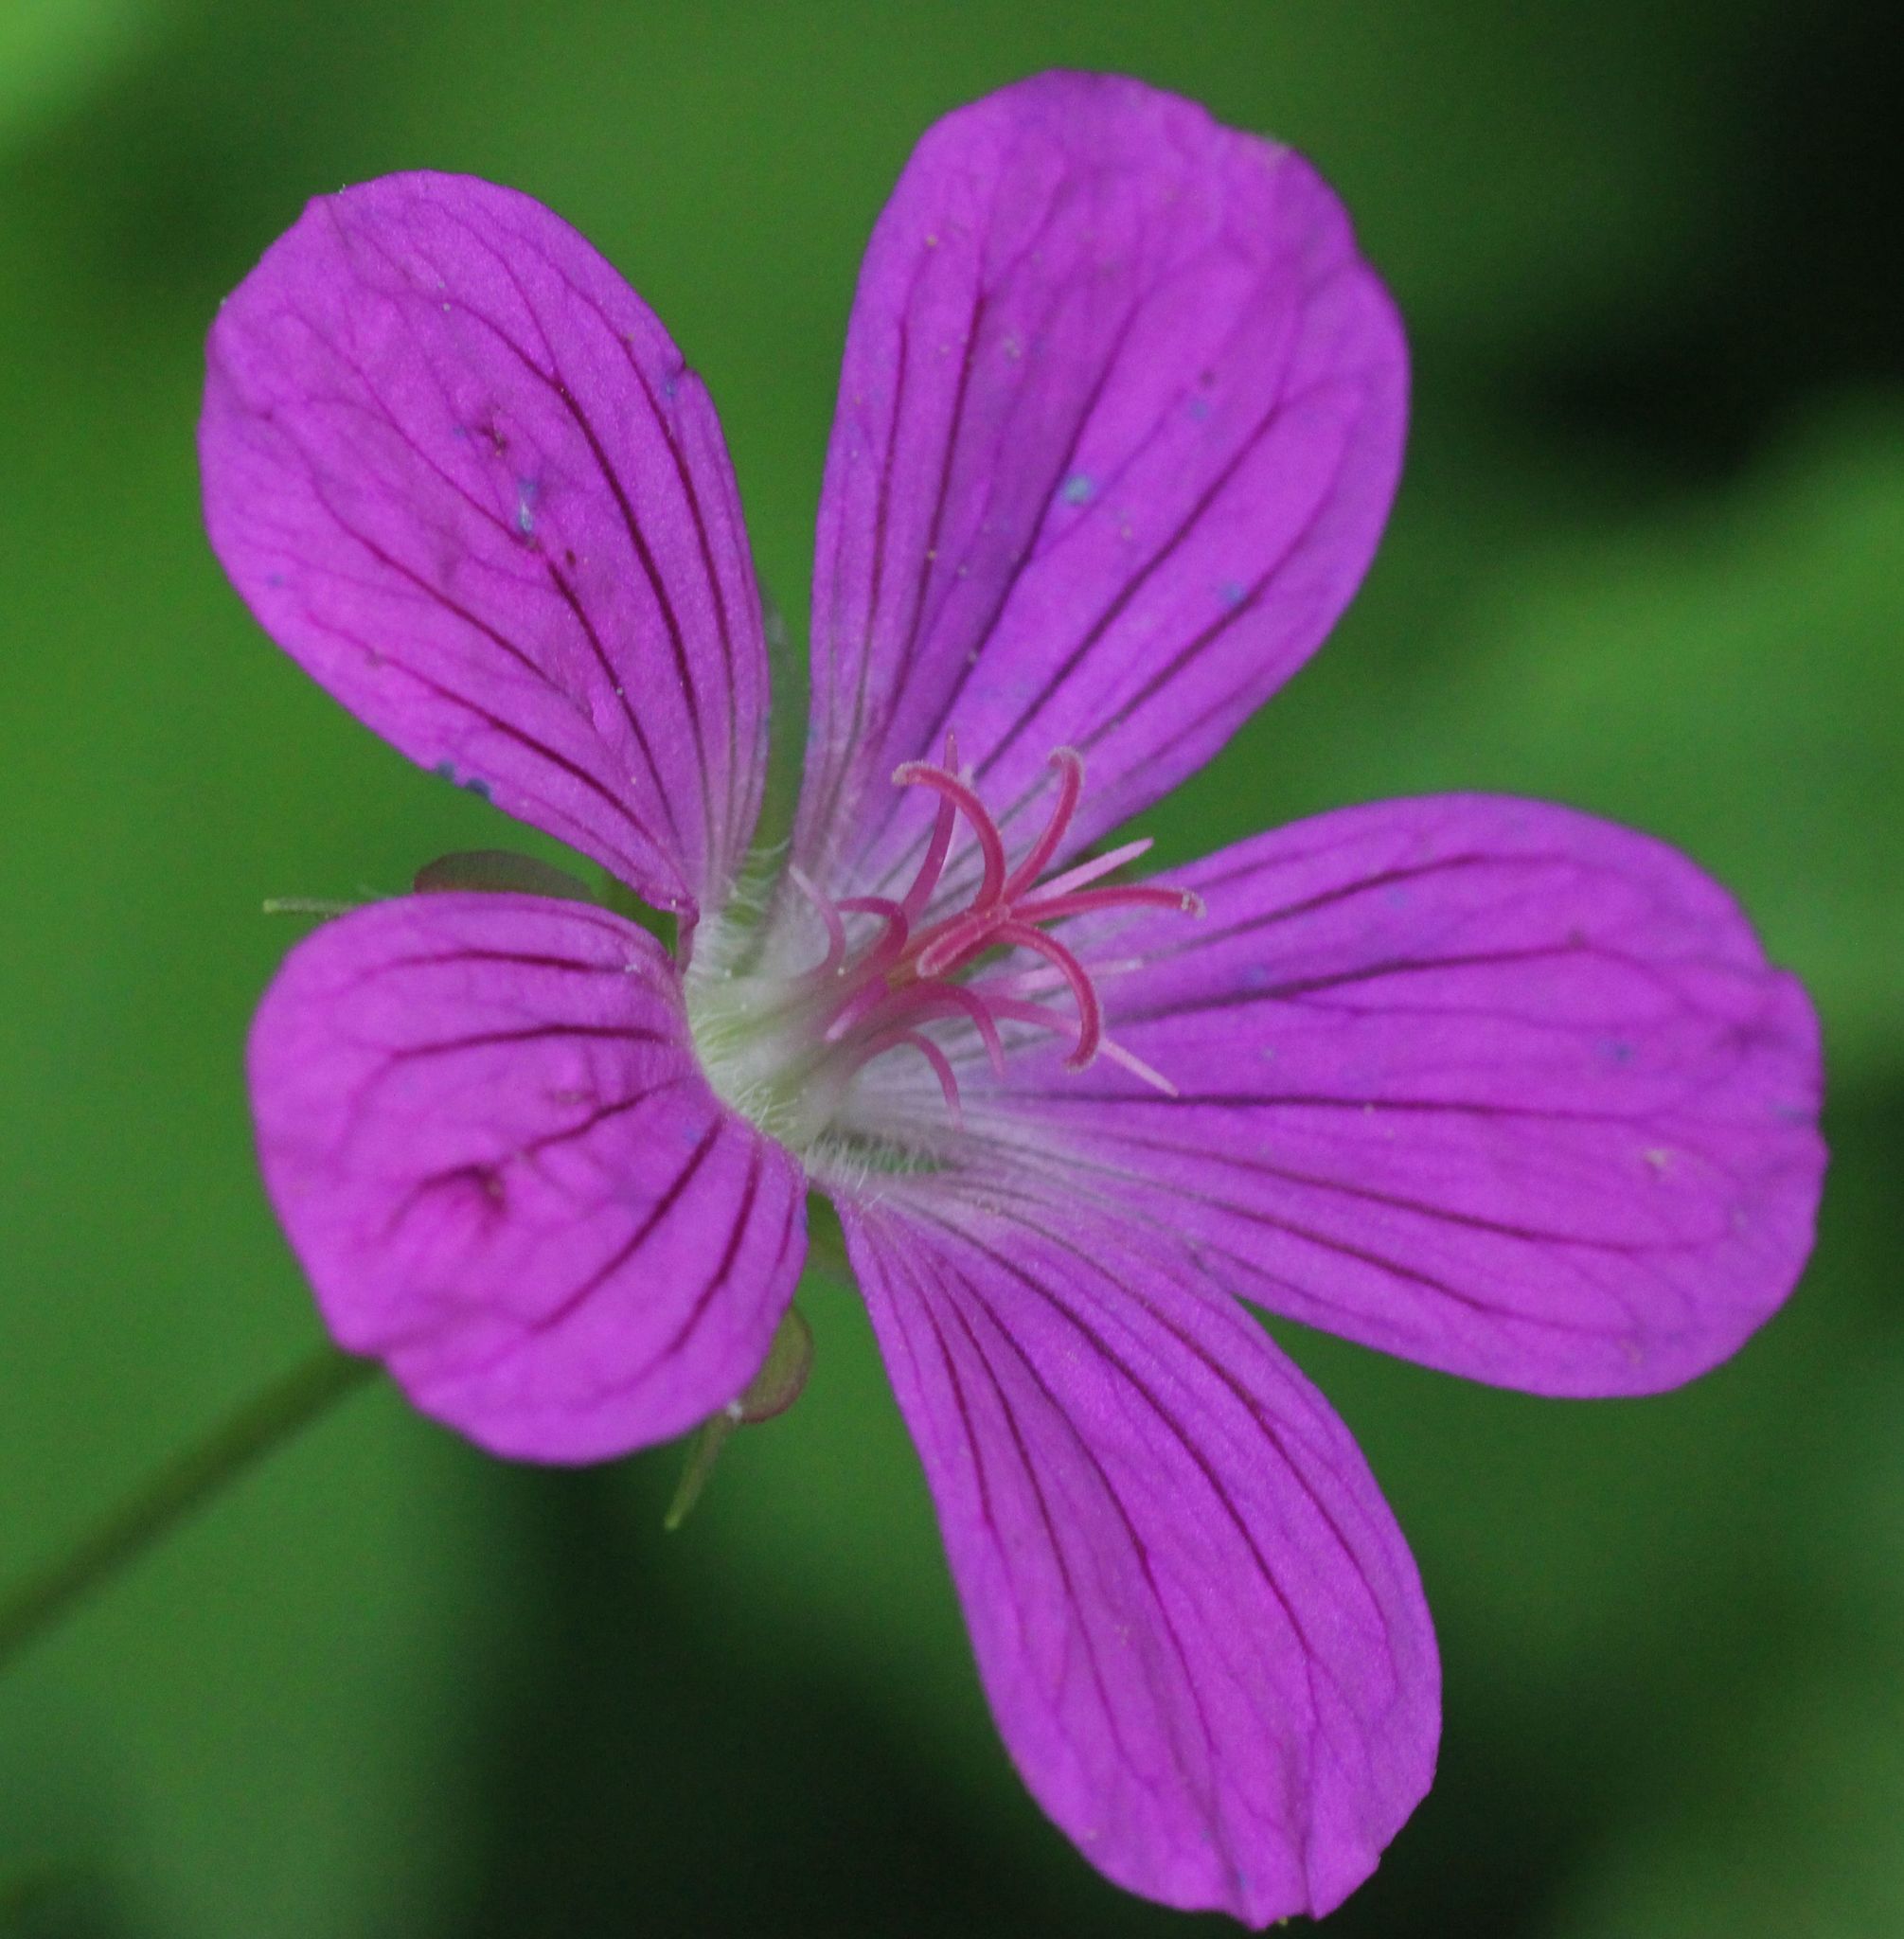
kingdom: Plantae
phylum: Tracheophyta
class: Magnoliopsida
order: Geraniales
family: Geraniaceae
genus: Geranium
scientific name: Geranium palustre
